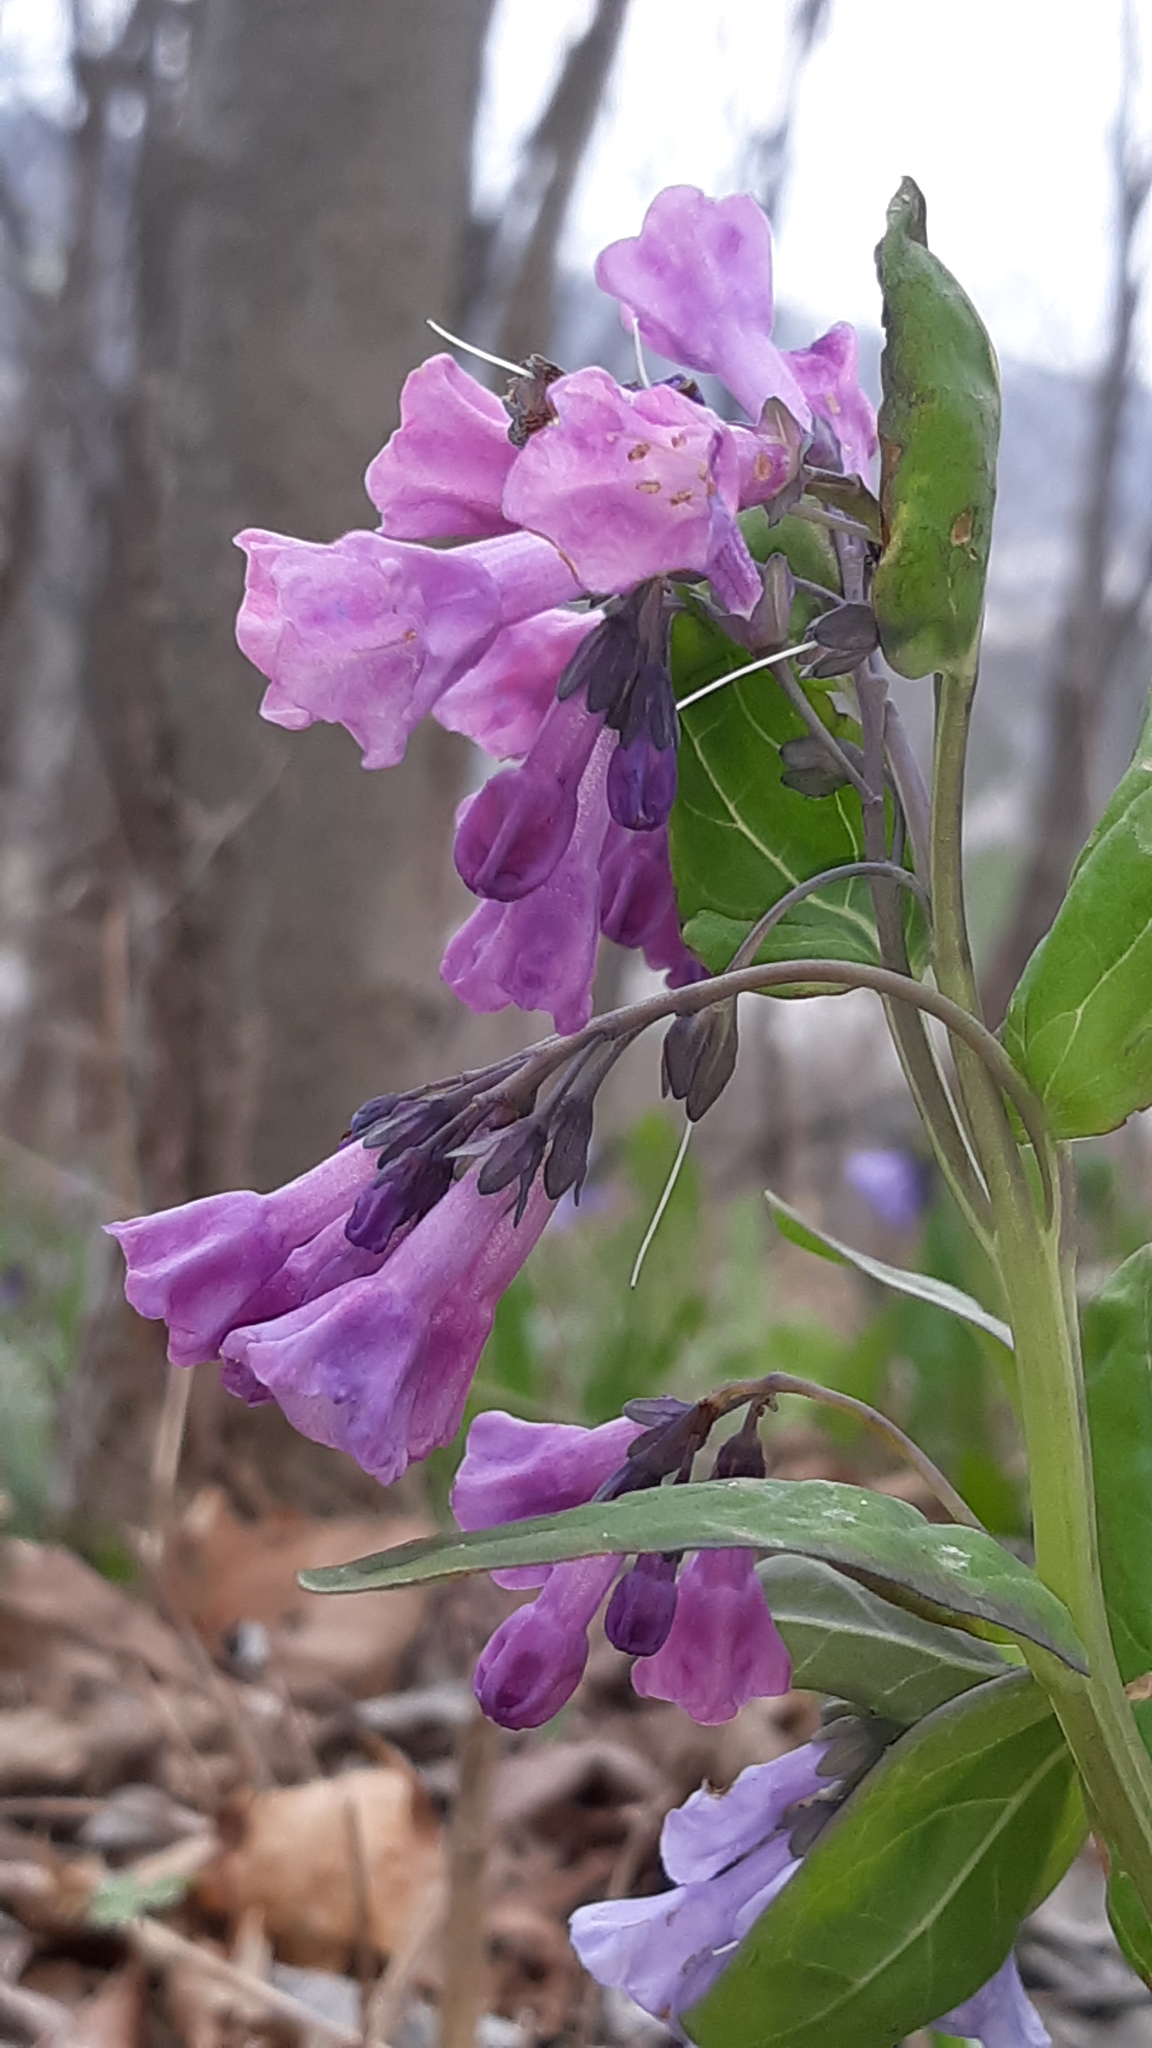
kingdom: Plantae
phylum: Tracheophyta
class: Magnoliopsida
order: Boraginales
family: Boraginaceae
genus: Mertensia
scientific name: Mertensia virginica
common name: Virginia bluebells
